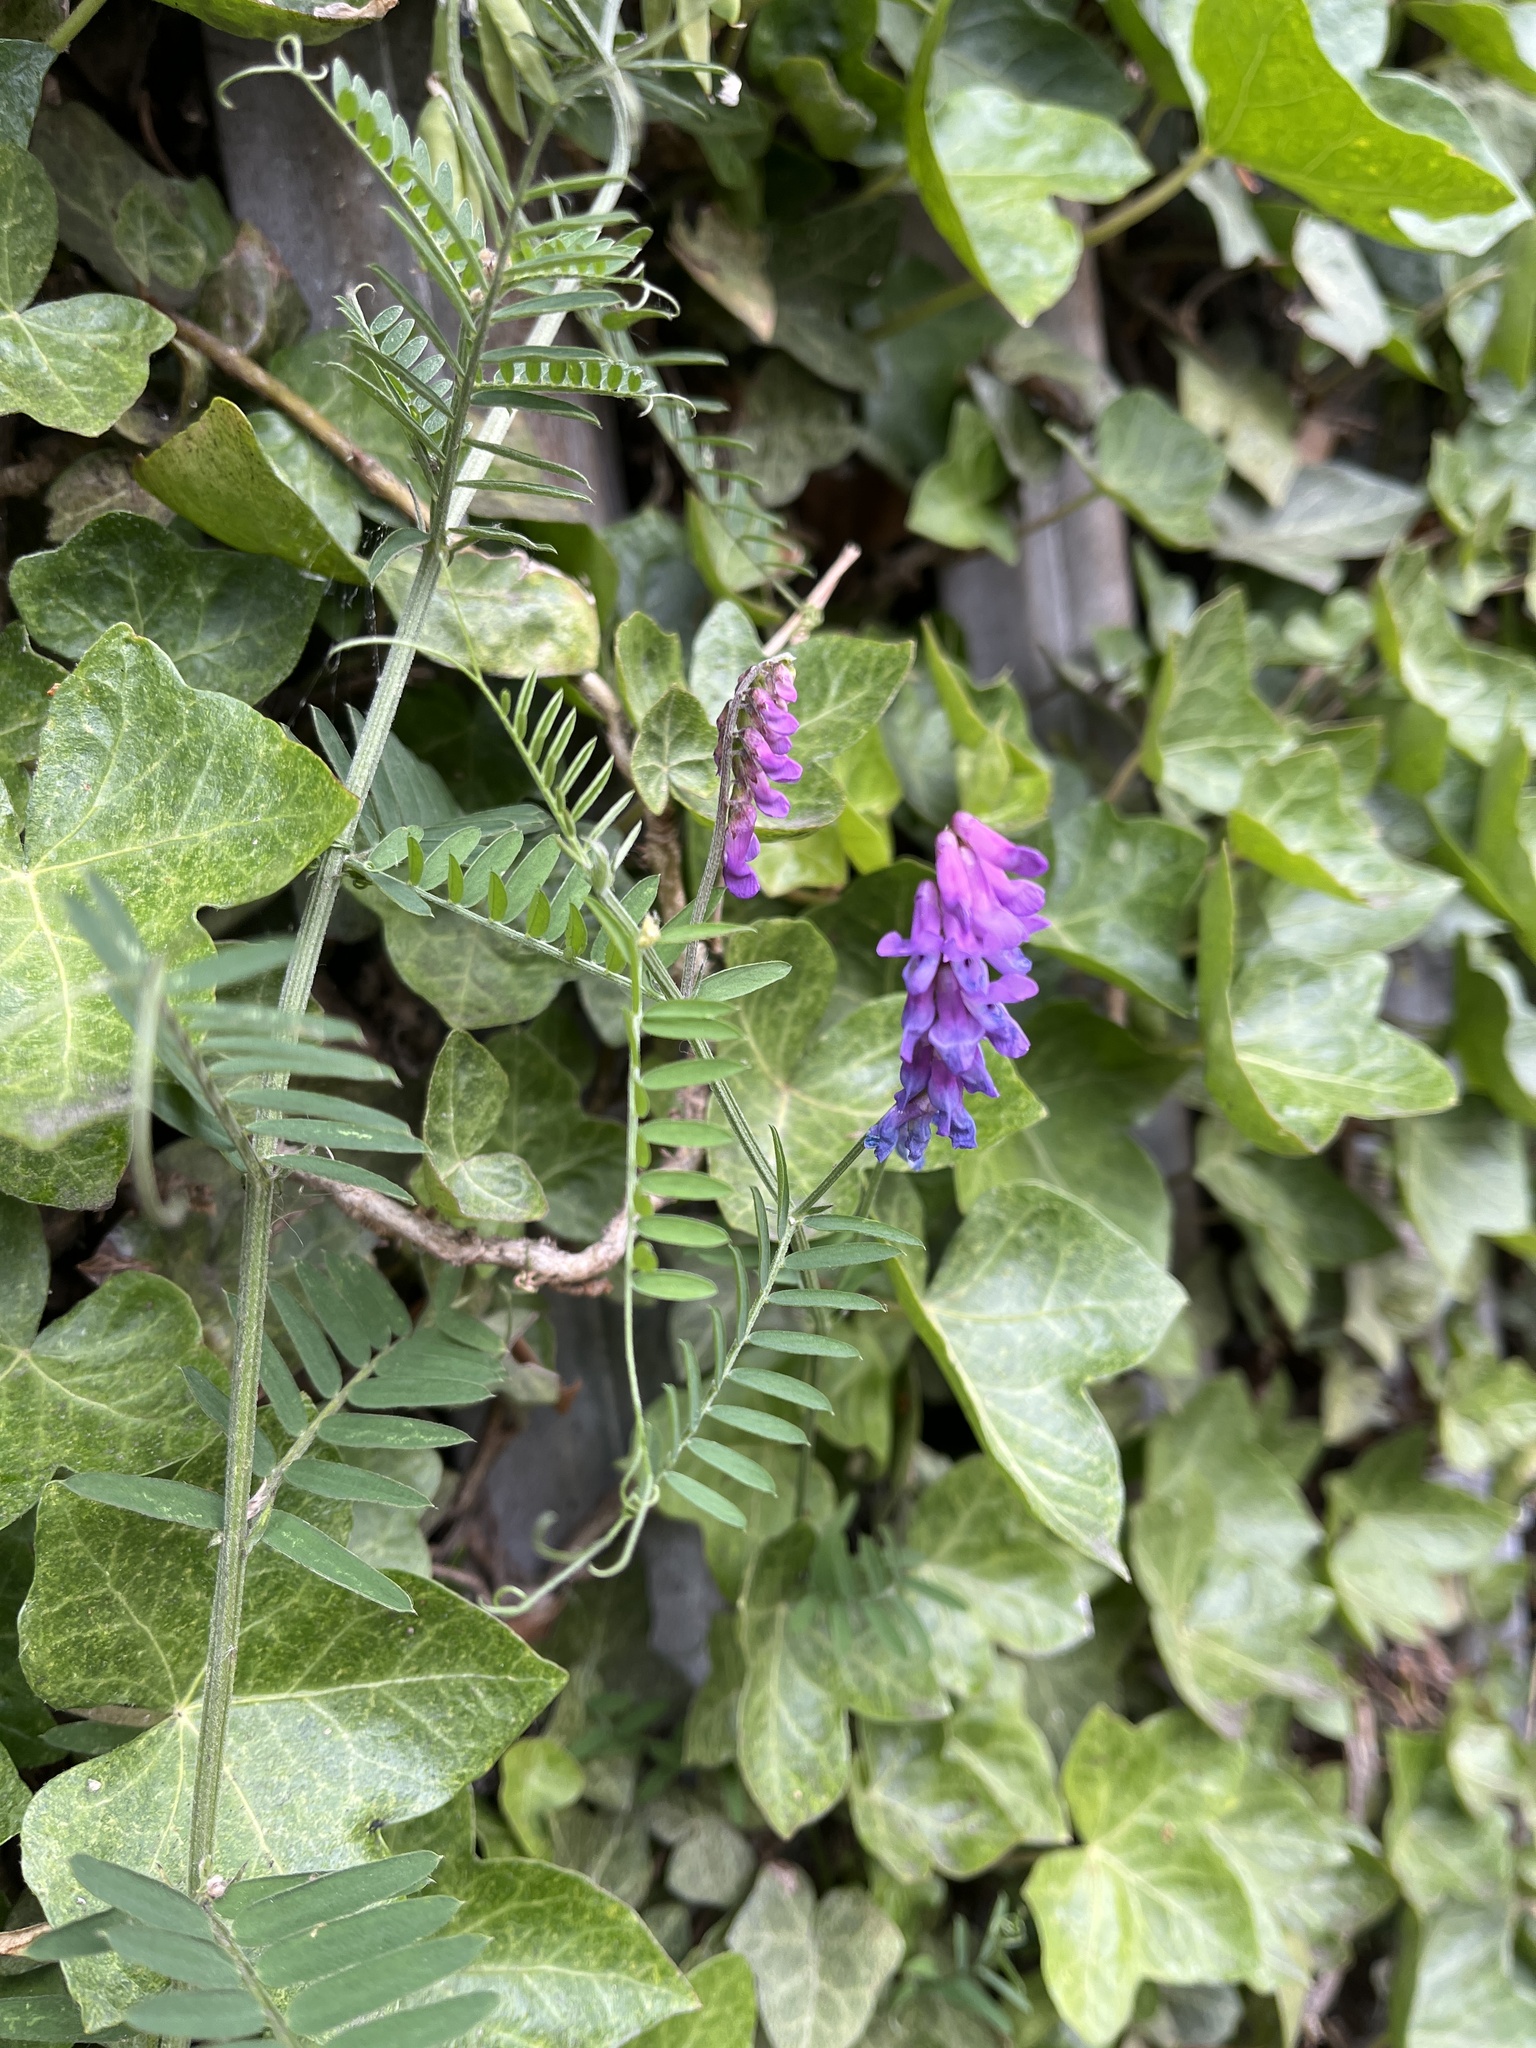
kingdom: Plantae
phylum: Tracheophyta
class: Magnoliopsida
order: Fabales
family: Fabaceae
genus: Vicia
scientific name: Vicia cracca
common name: Bird vetch
